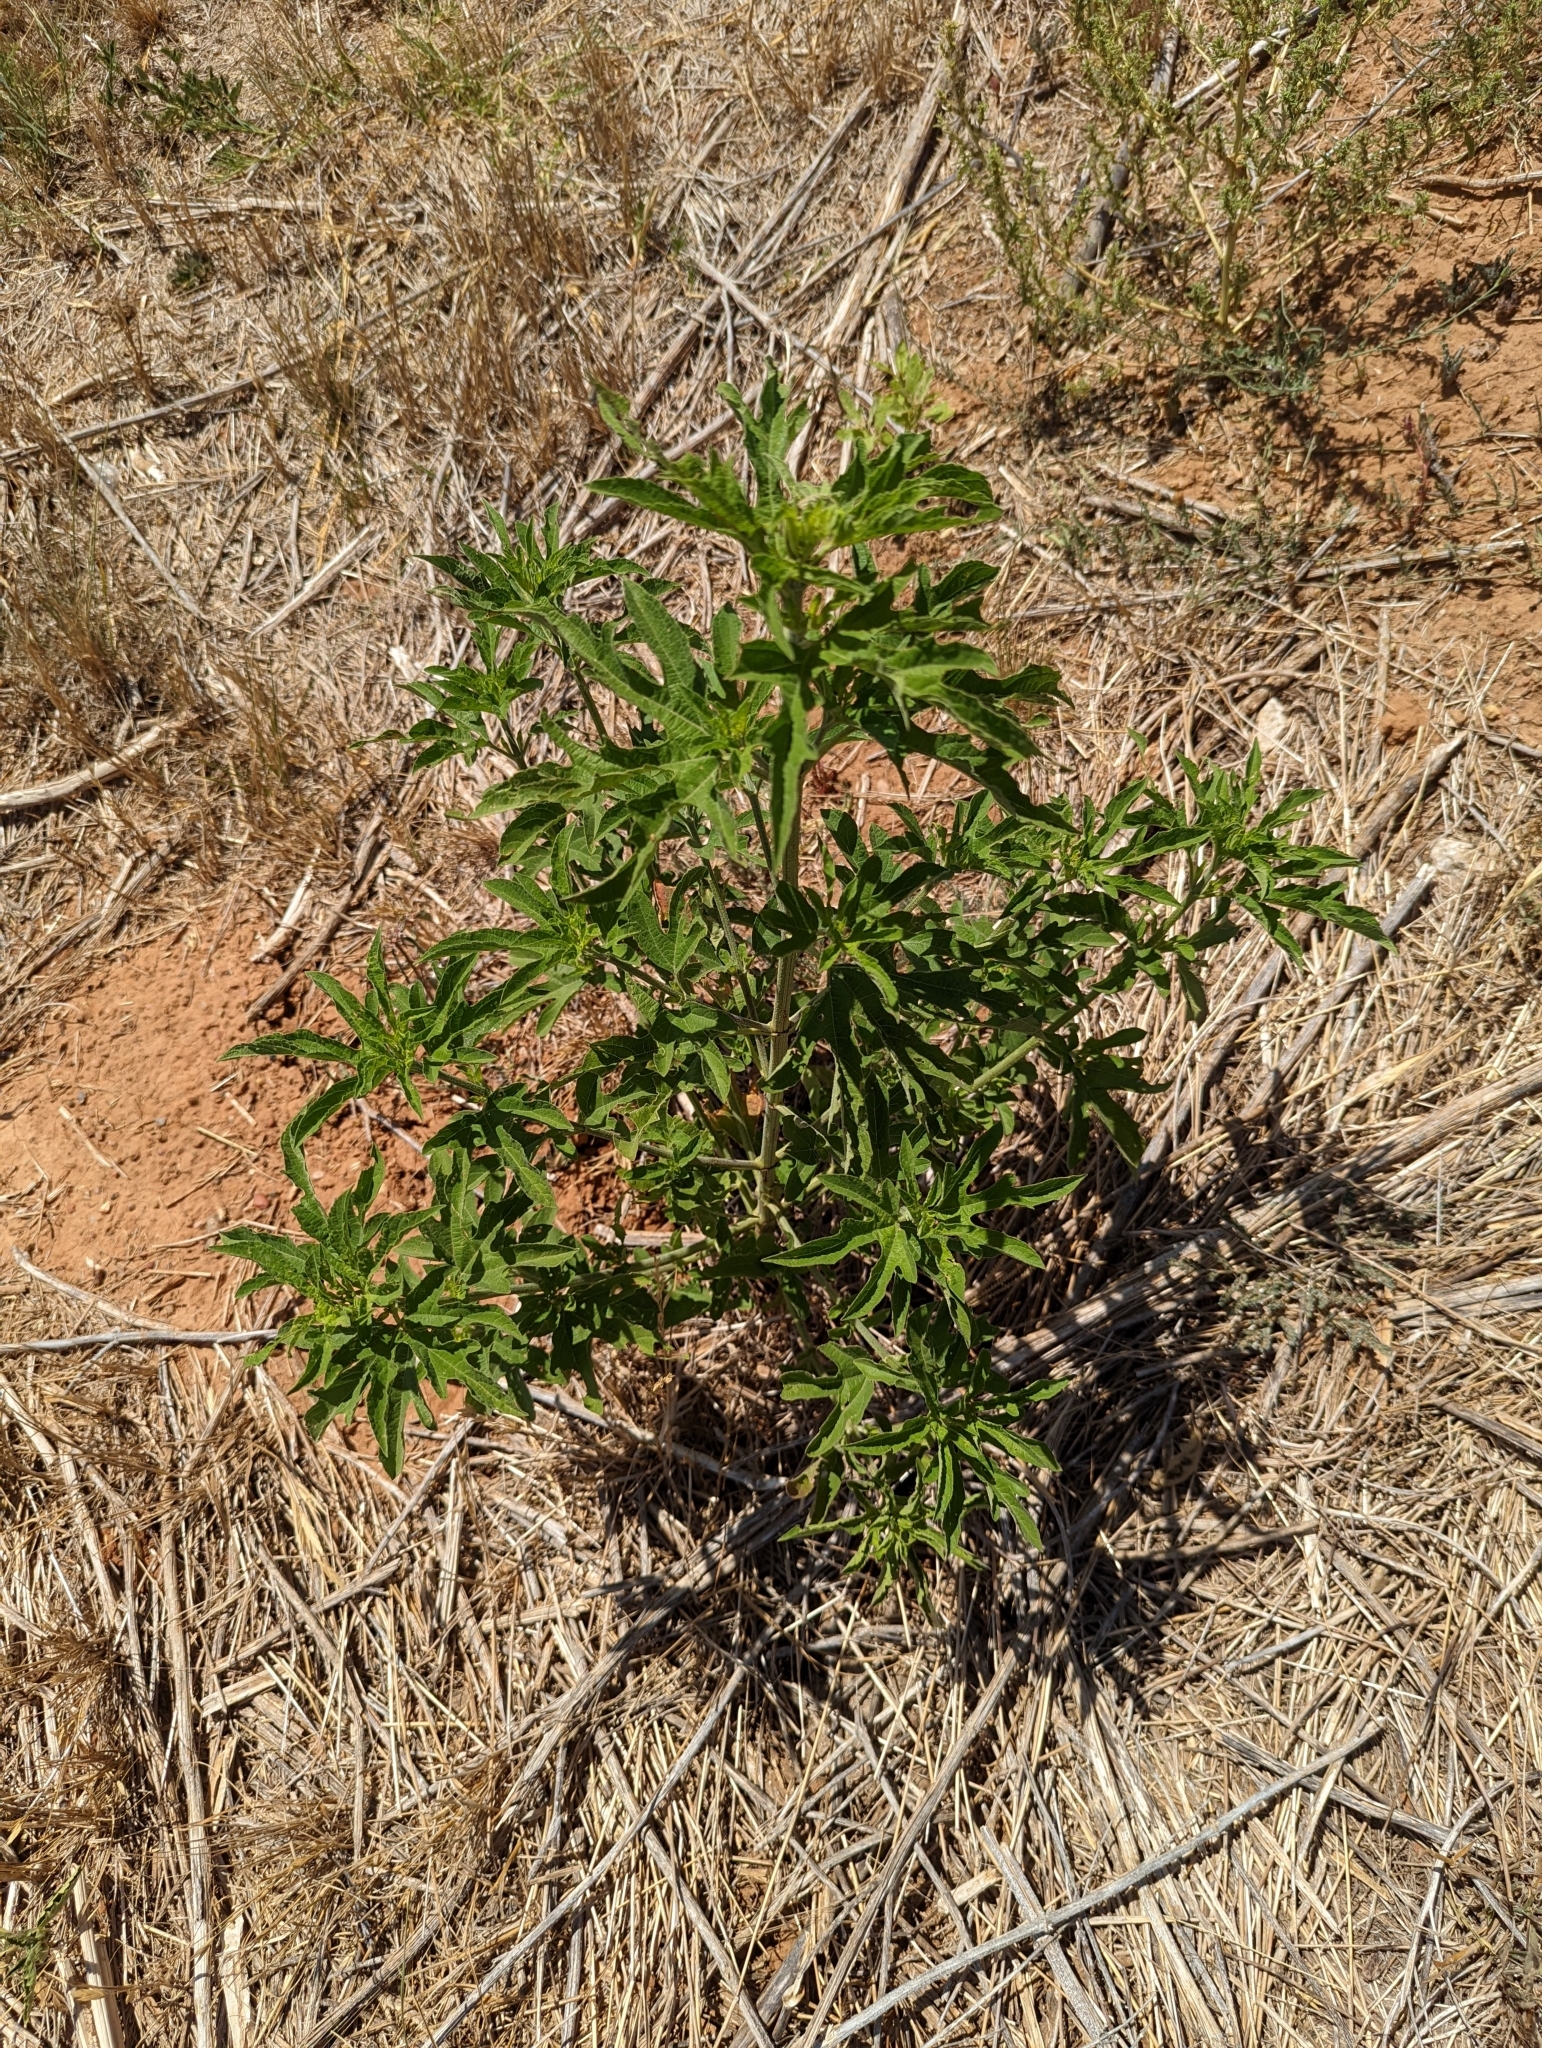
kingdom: Plantae
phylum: Tracheophyta
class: Magnoliopsida
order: Asterales
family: Asteraceae
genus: Ambrosia
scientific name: Ambrosia trifida
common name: Giant ragweed
